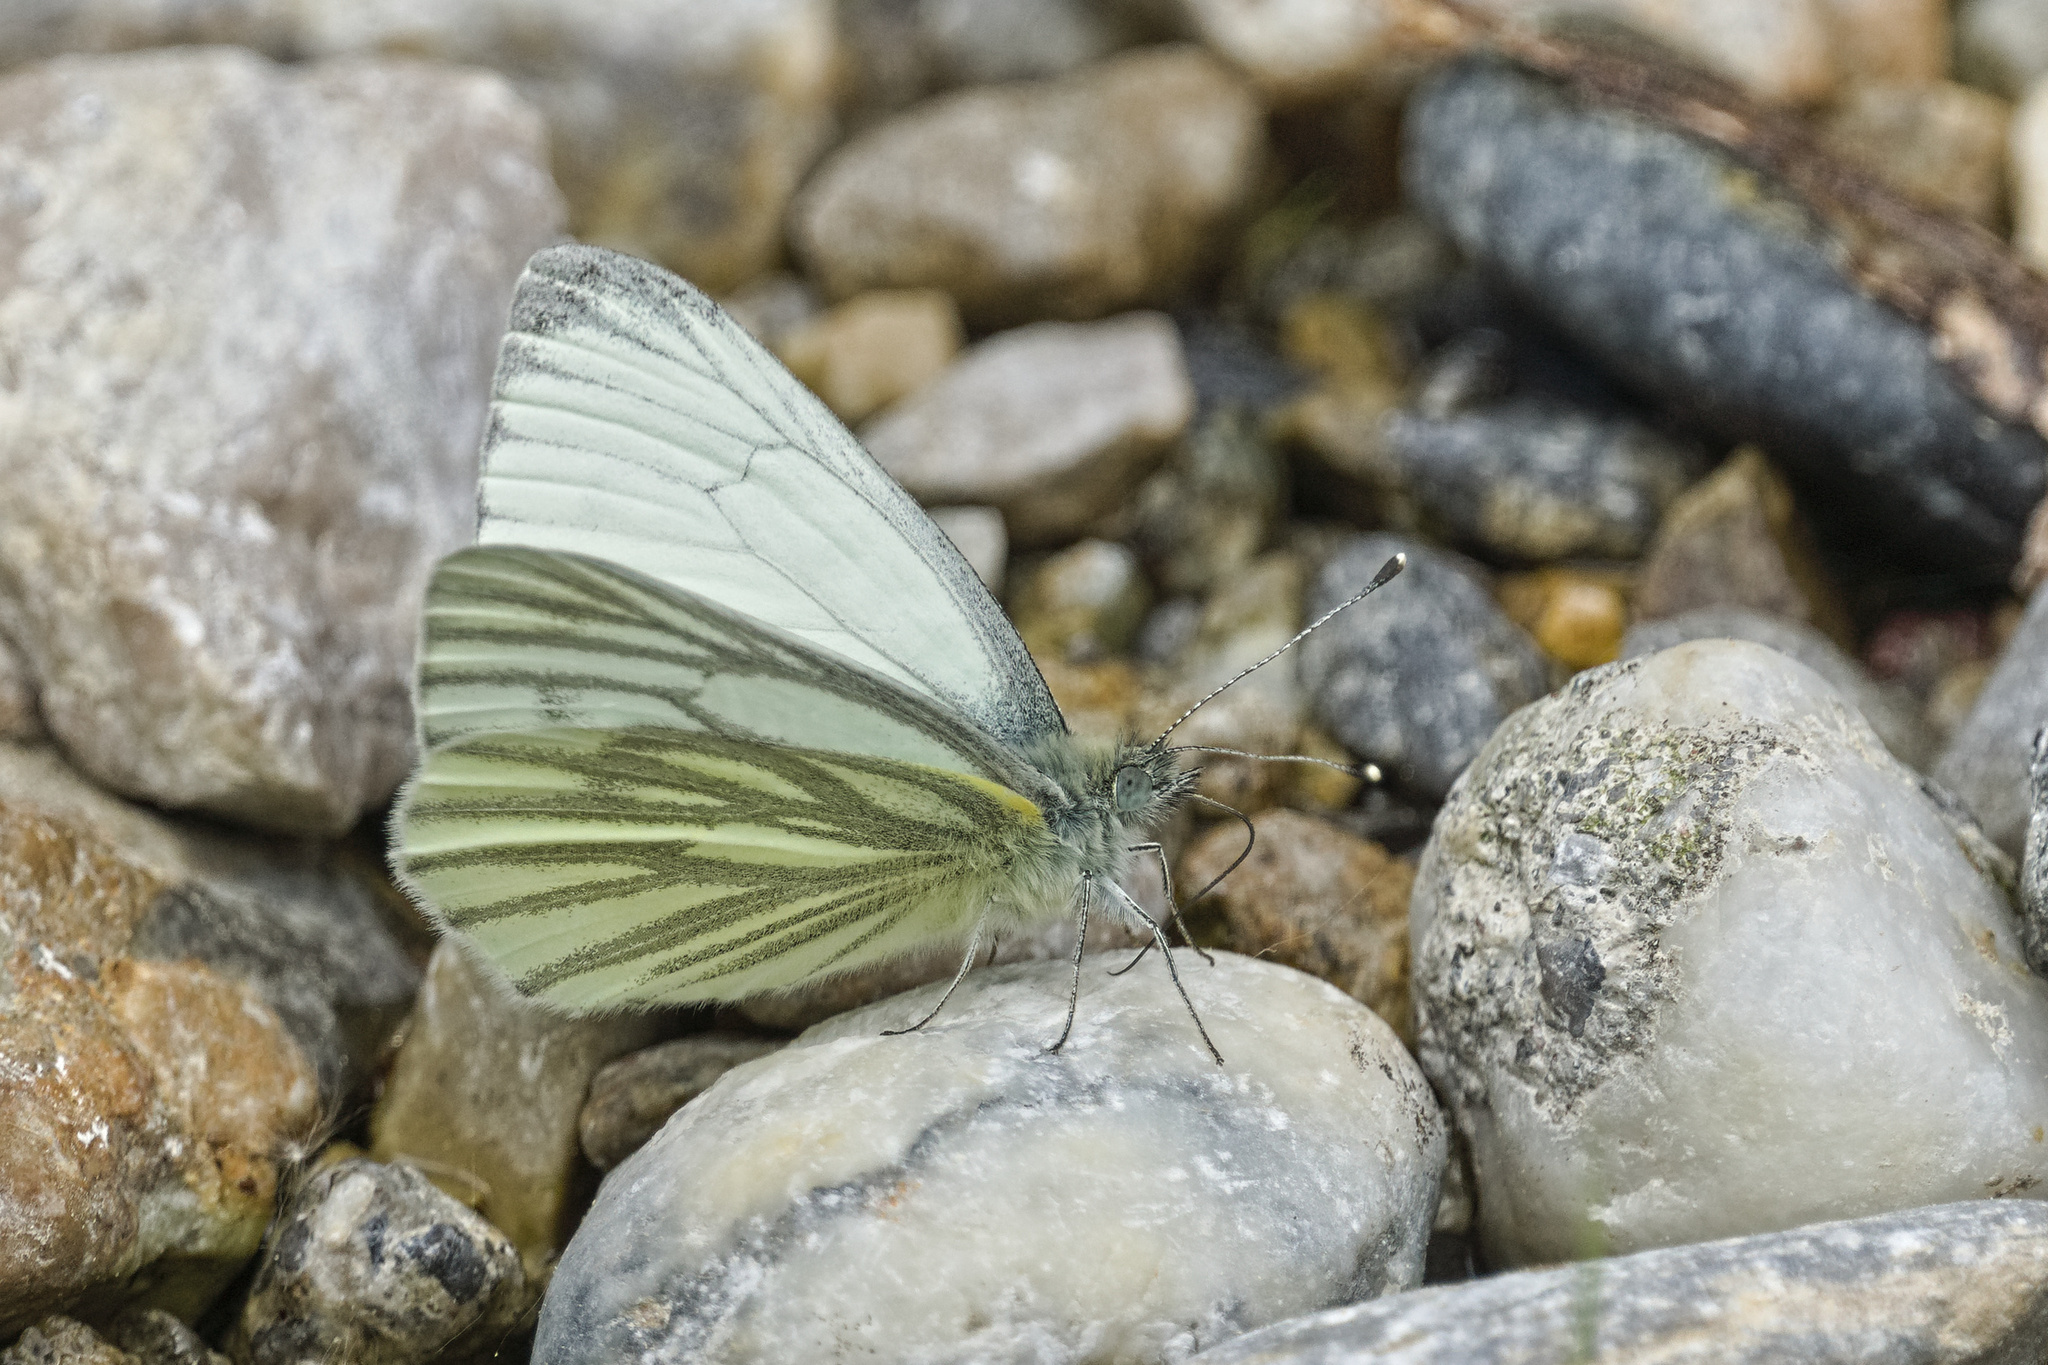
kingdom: Animalia
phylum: Arthropoda
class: Insecta
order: Lepidoptera
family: Pieridae
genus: Pieris
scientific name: Pieris napi
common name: Green-veined white
